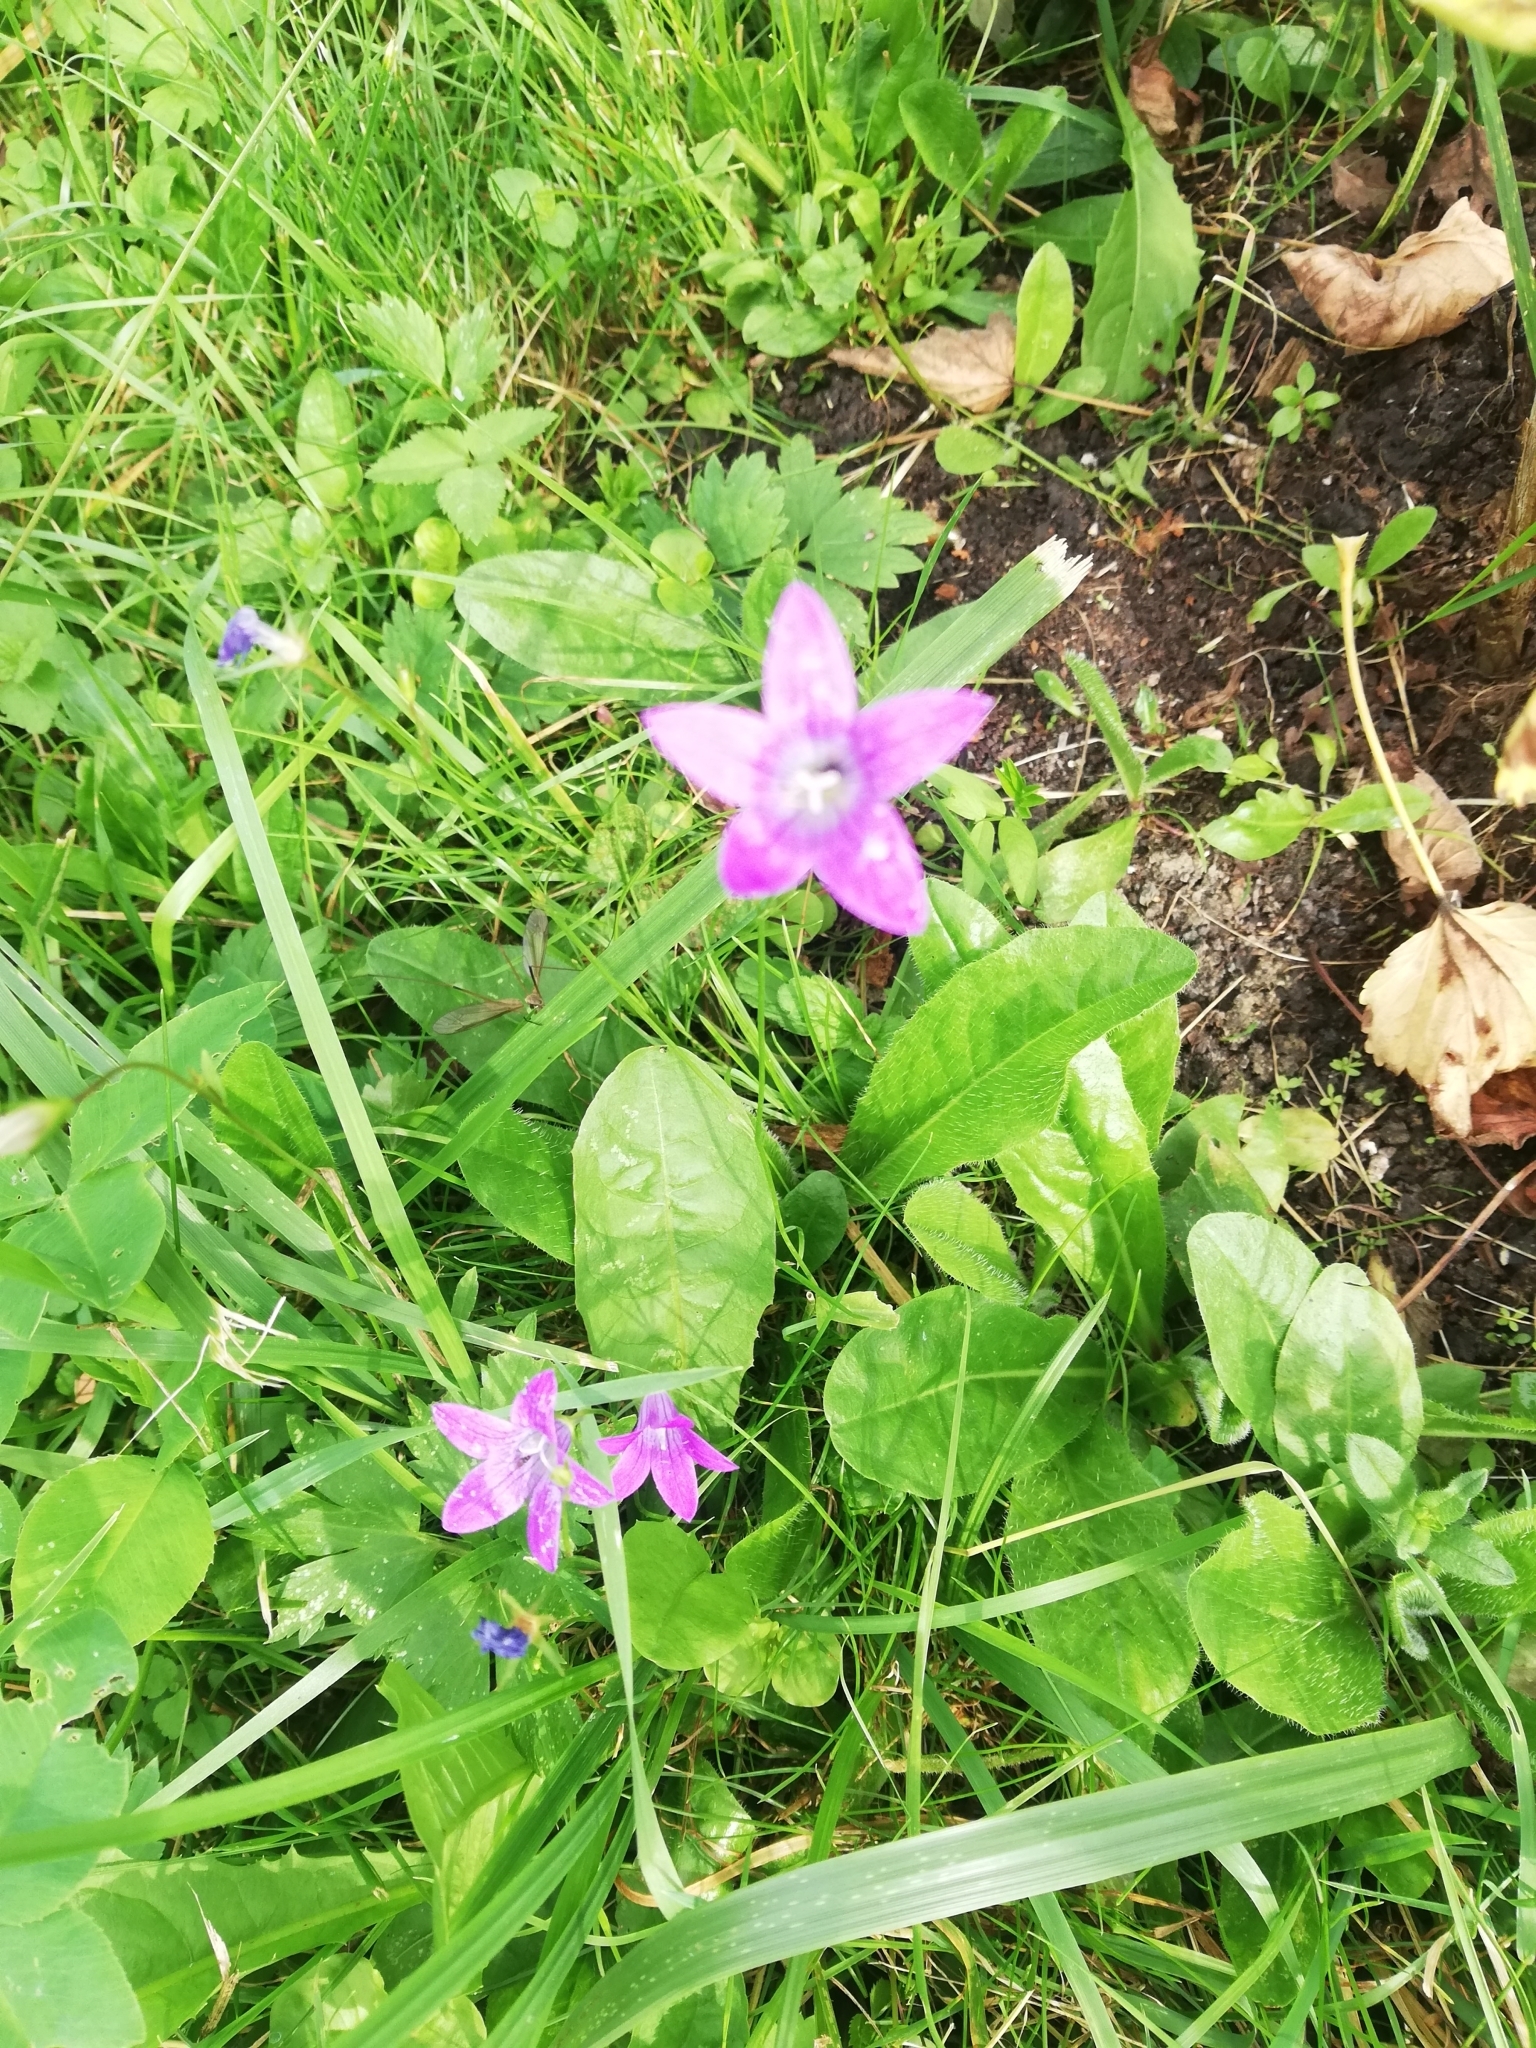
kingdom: Plantae
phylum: Tracheophyta
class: Magnoliopsida
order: Asterales
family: Campanulaceae
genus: Campanula
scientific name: Campanula patula
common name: Spreading bellflower
